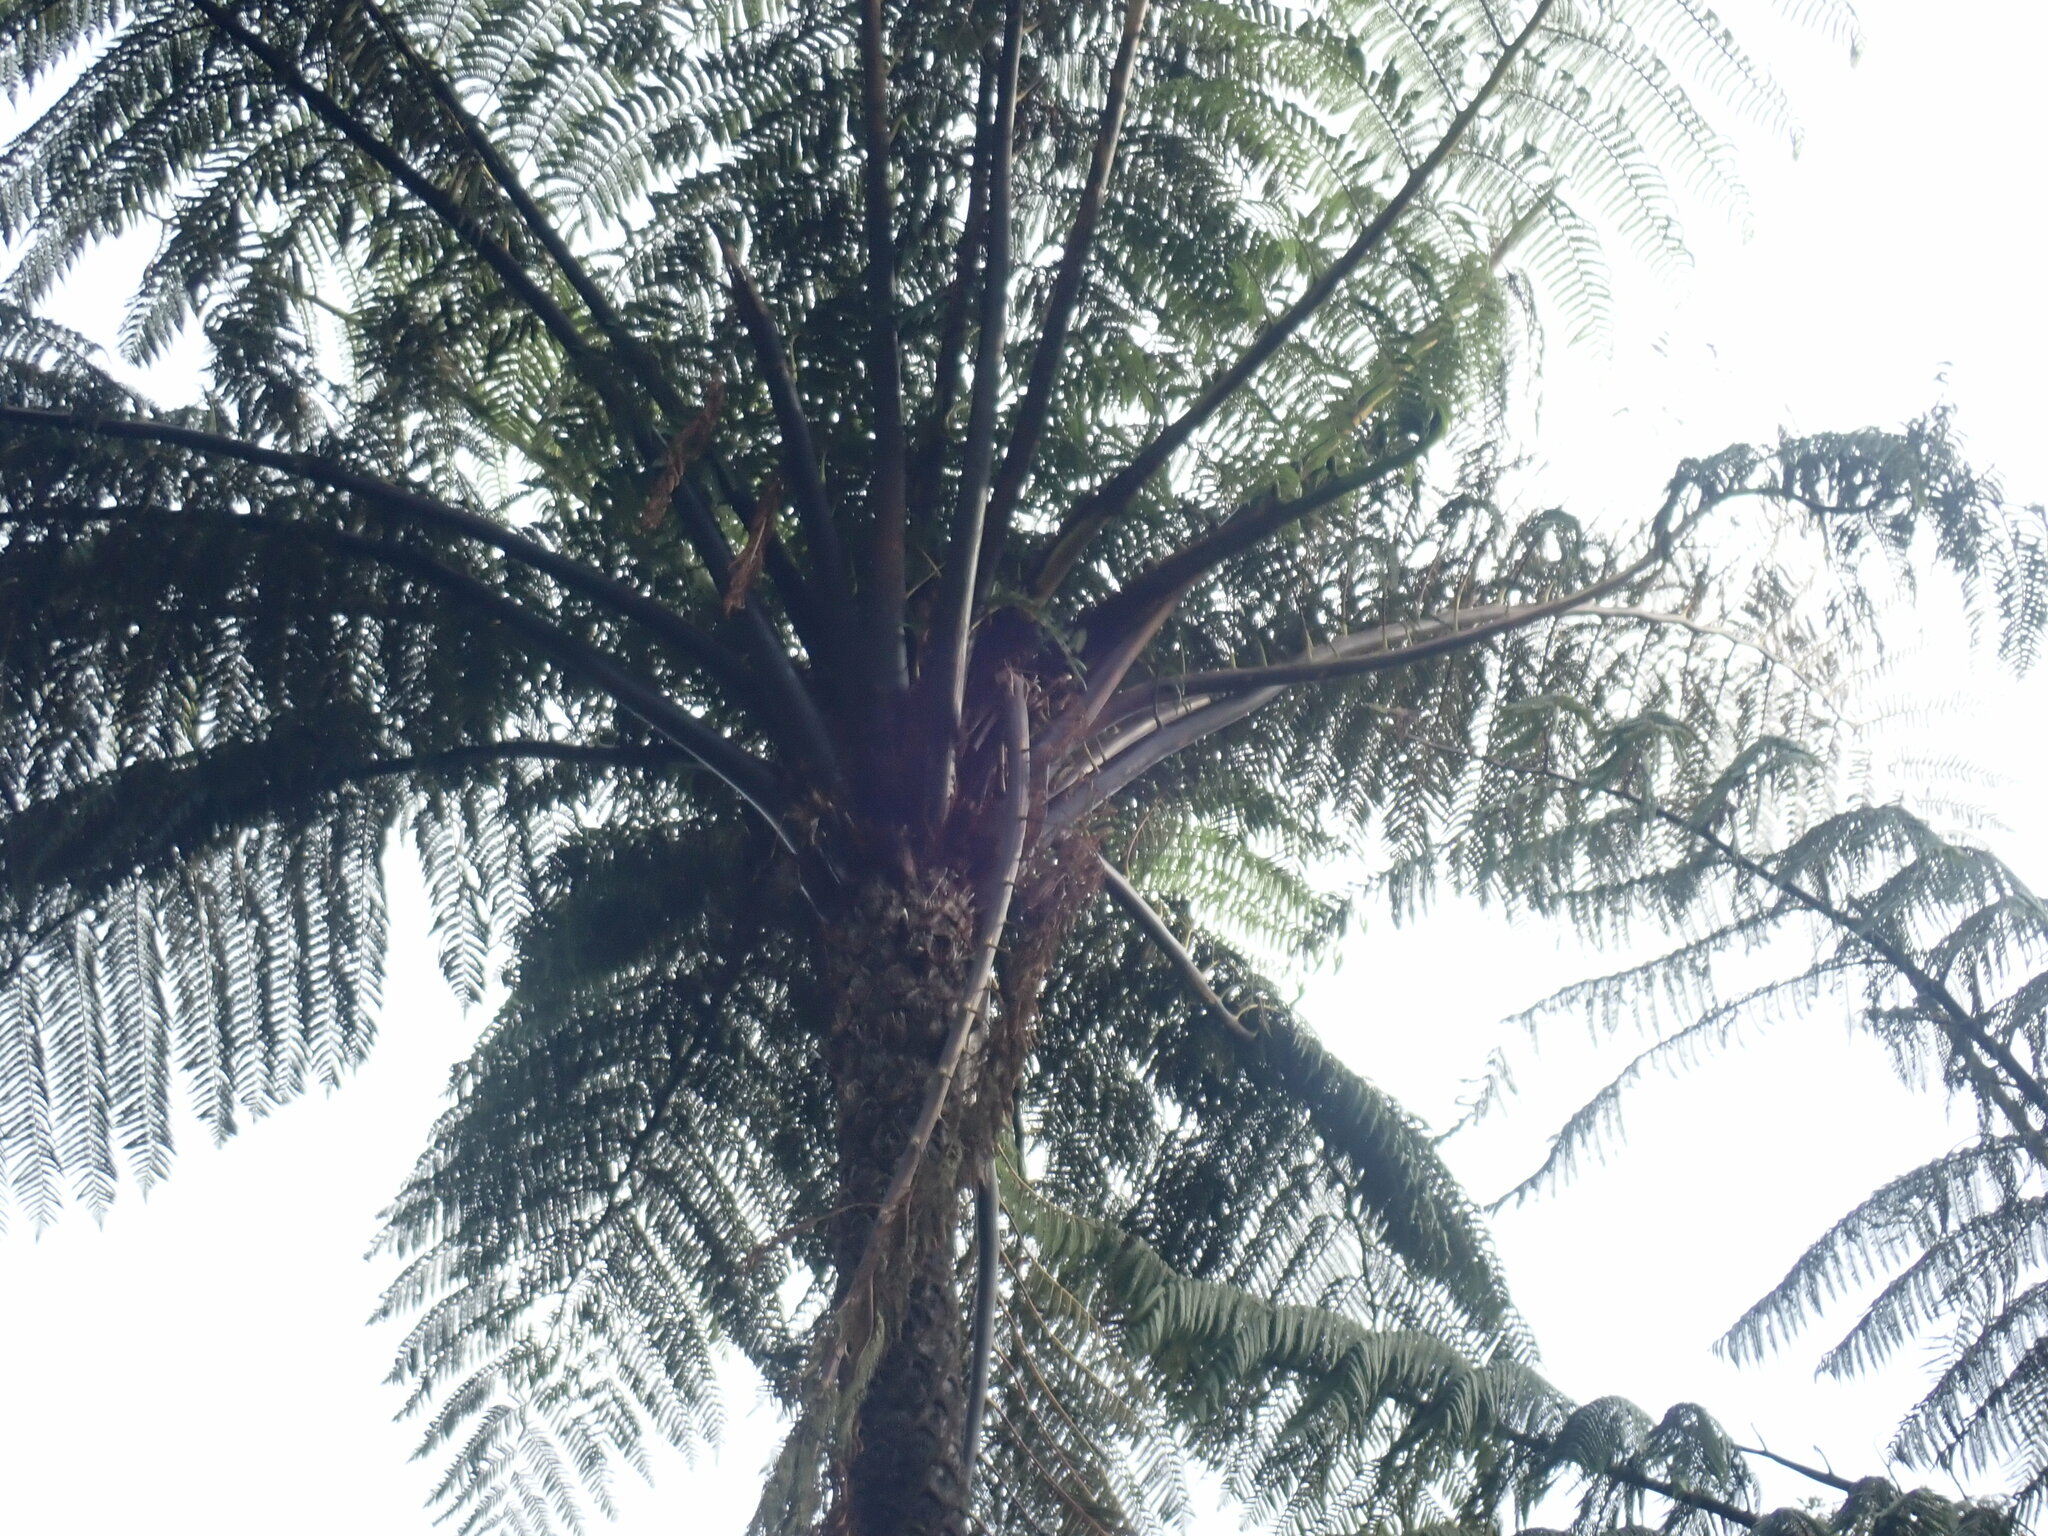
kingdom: Plantae
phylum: Tracheophyta
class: Polypodiopsida
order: Cyatheales
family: Cyatheaceae
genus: Sphaeropteris
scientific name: Sphaeropteris medullaris
